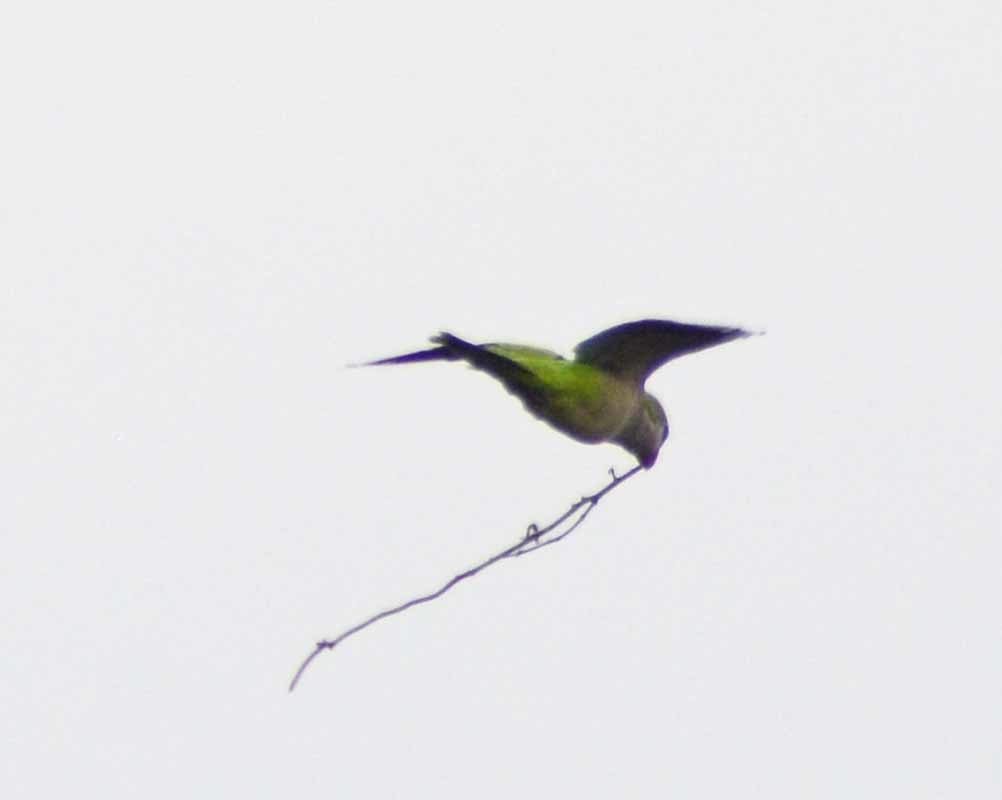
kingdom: Animalia
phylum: Chordata
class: Aves
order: Psittaciformes
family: Psittacidae
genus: Myiopsitta
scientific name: Myiopsitta monachus
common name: Monk parakeet
